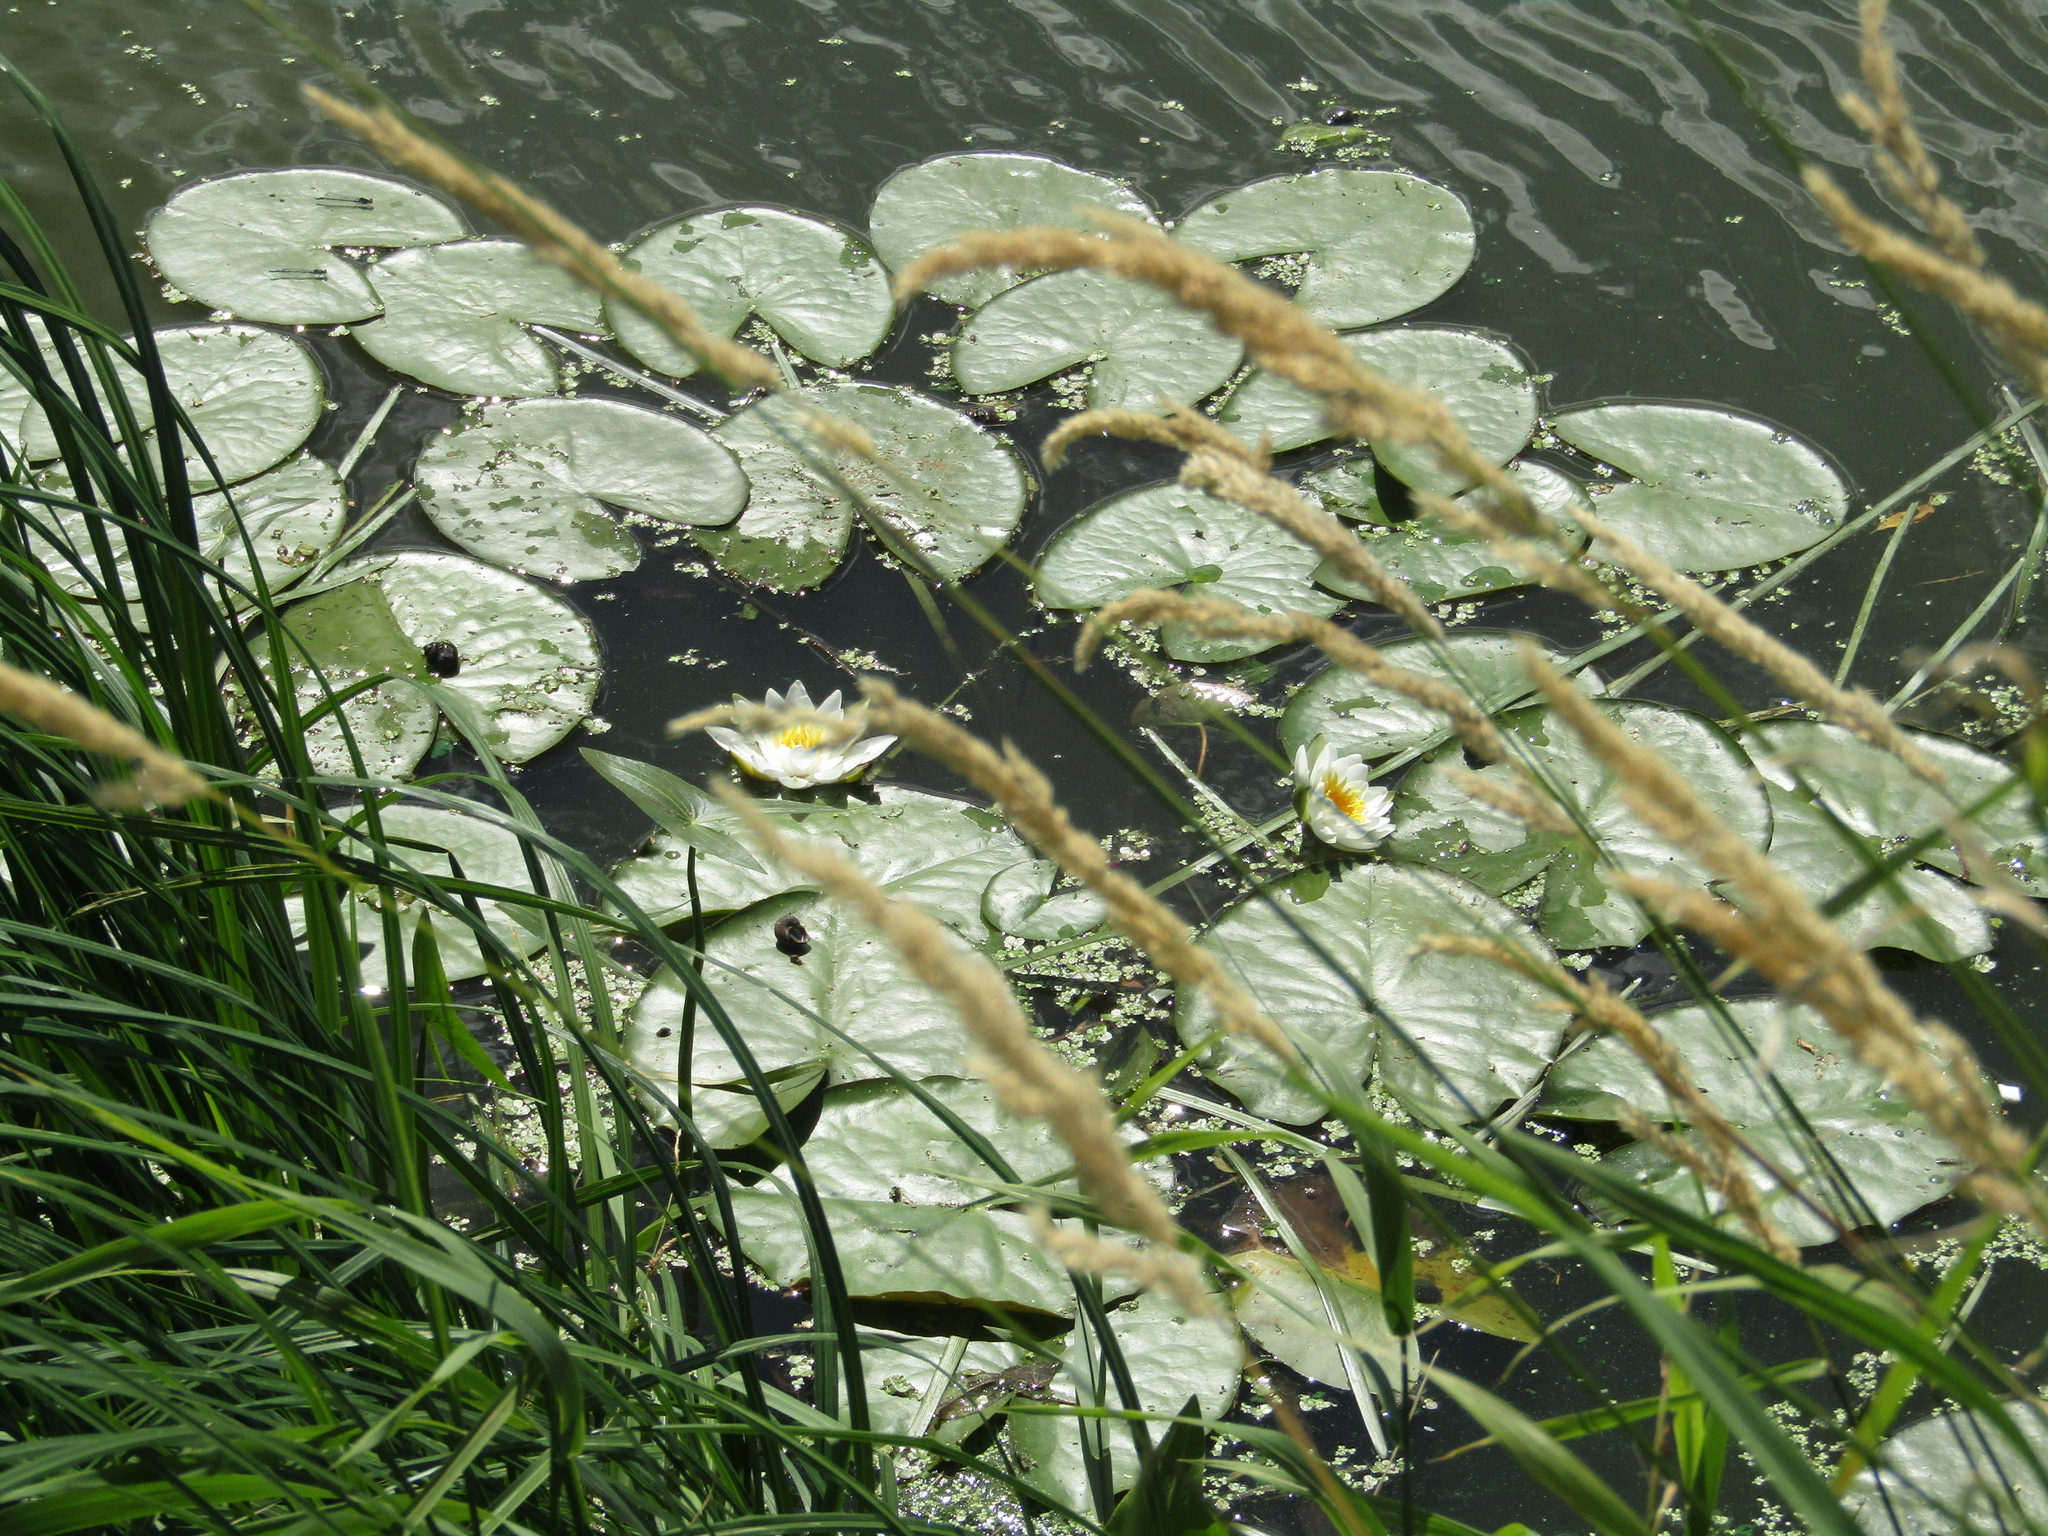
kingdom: Plantae
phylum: Tracheophyta
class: Magnoliopsida
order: Nymphaeales
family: Nymphaeaceae
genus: Nymphaea
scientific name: Nymphaea candida
